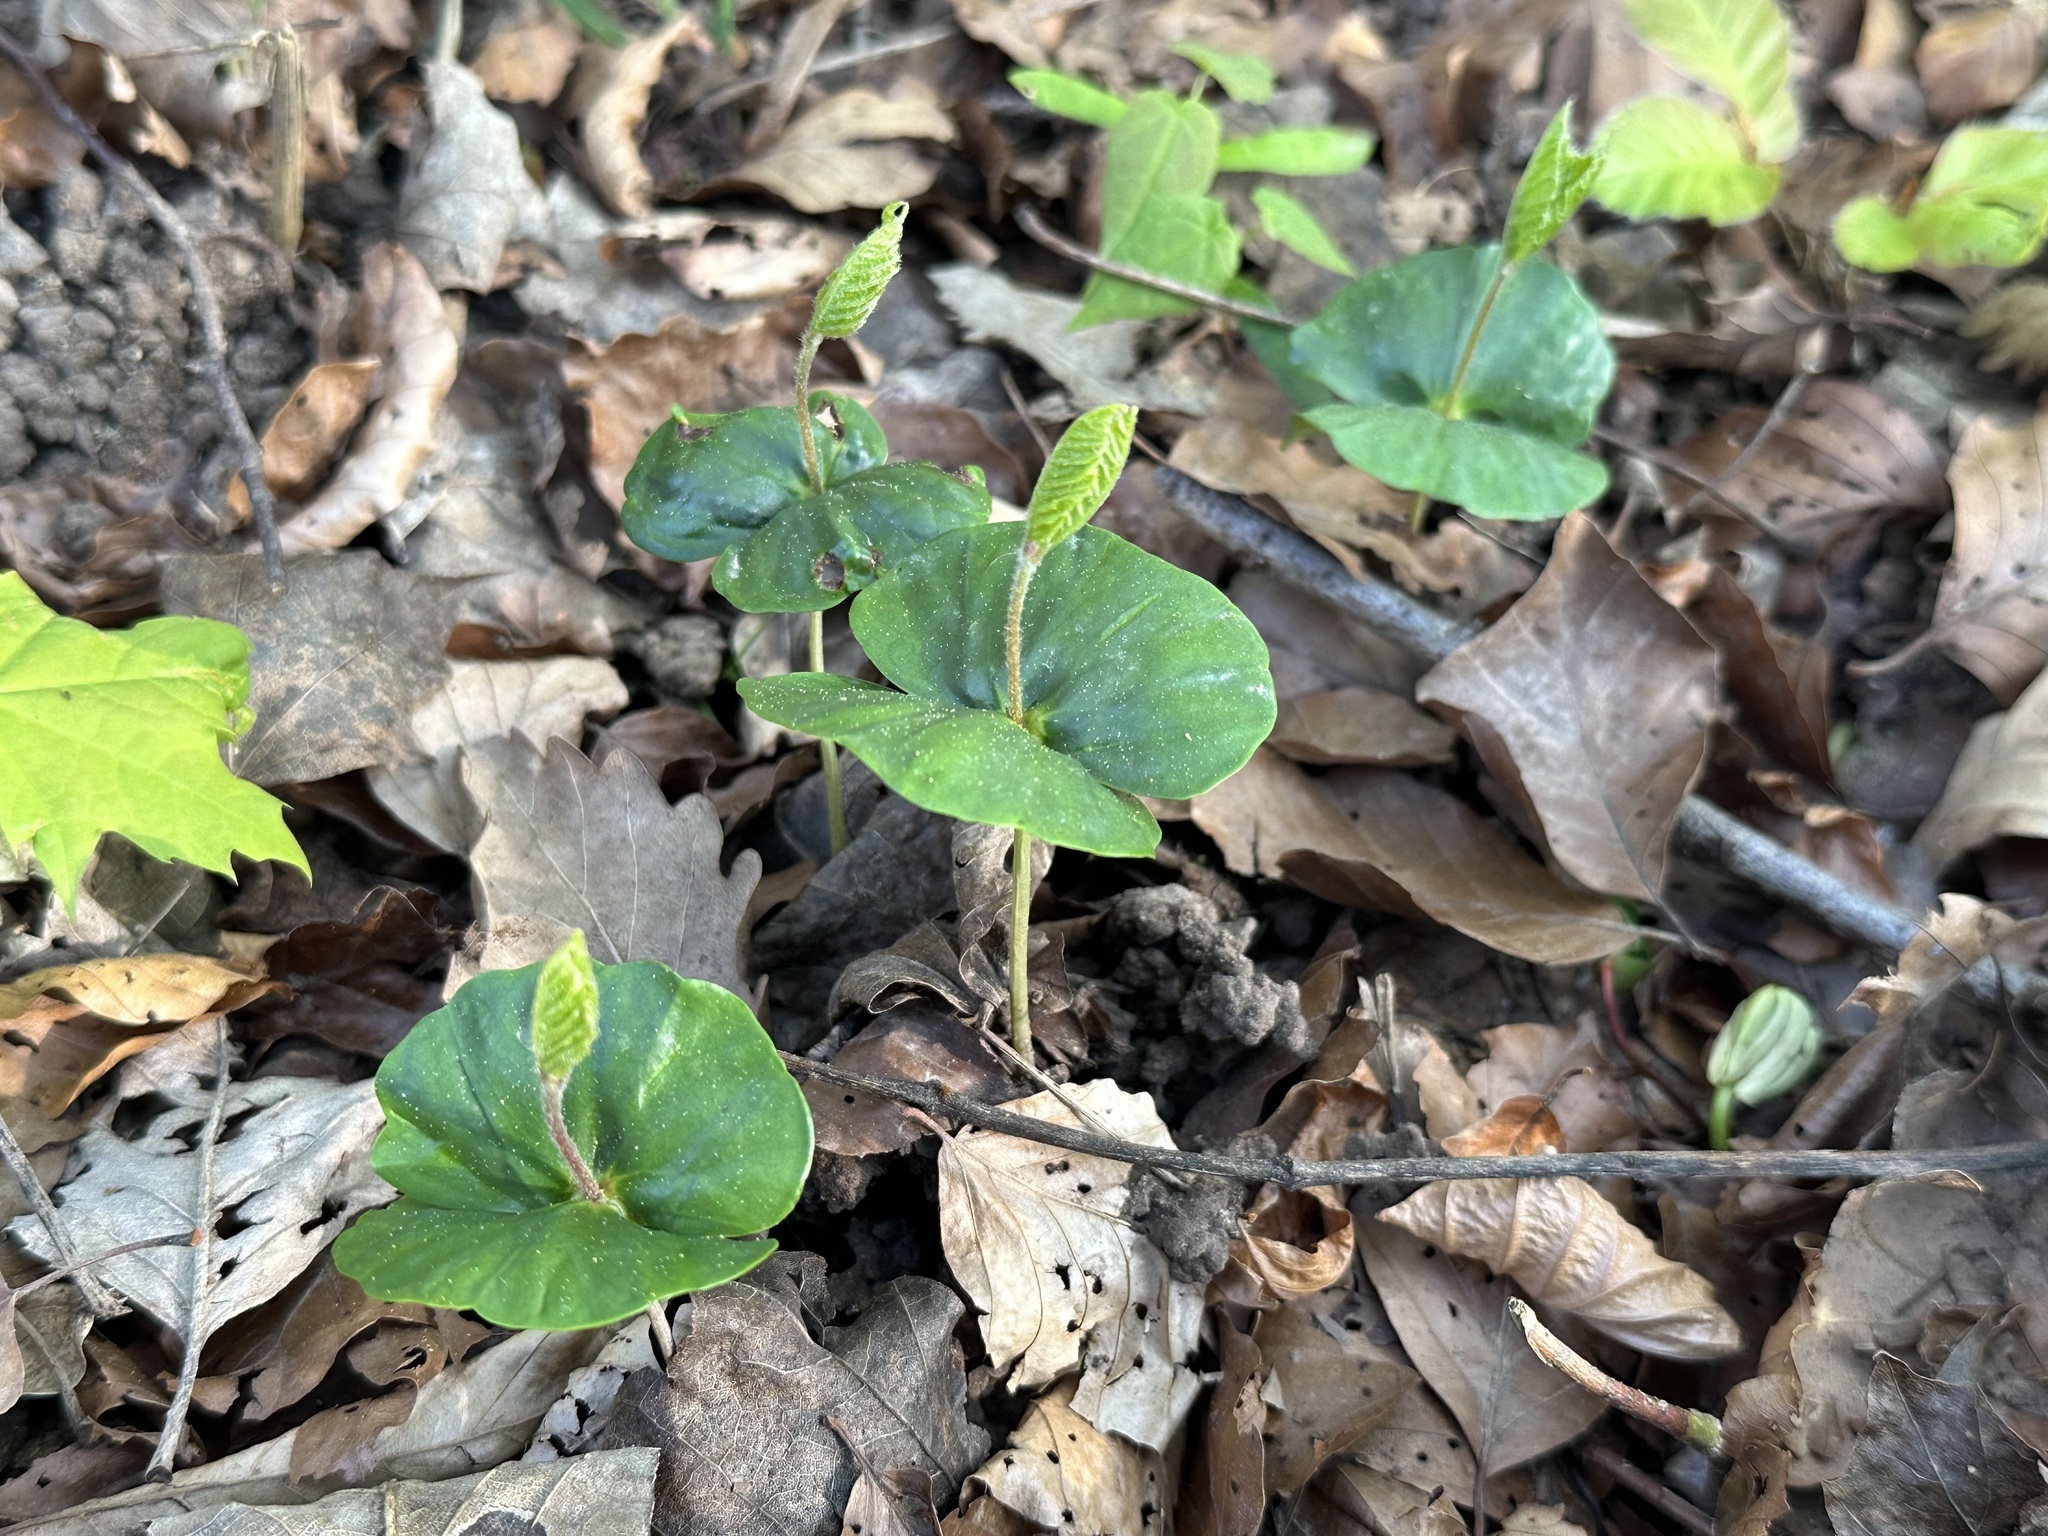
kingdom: Plantae
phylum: Tracheophyta
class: Magnoliopsida
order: Fagales
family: Fagaceae
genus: Fagus
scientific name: Fagus sylvatica
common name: Beech
